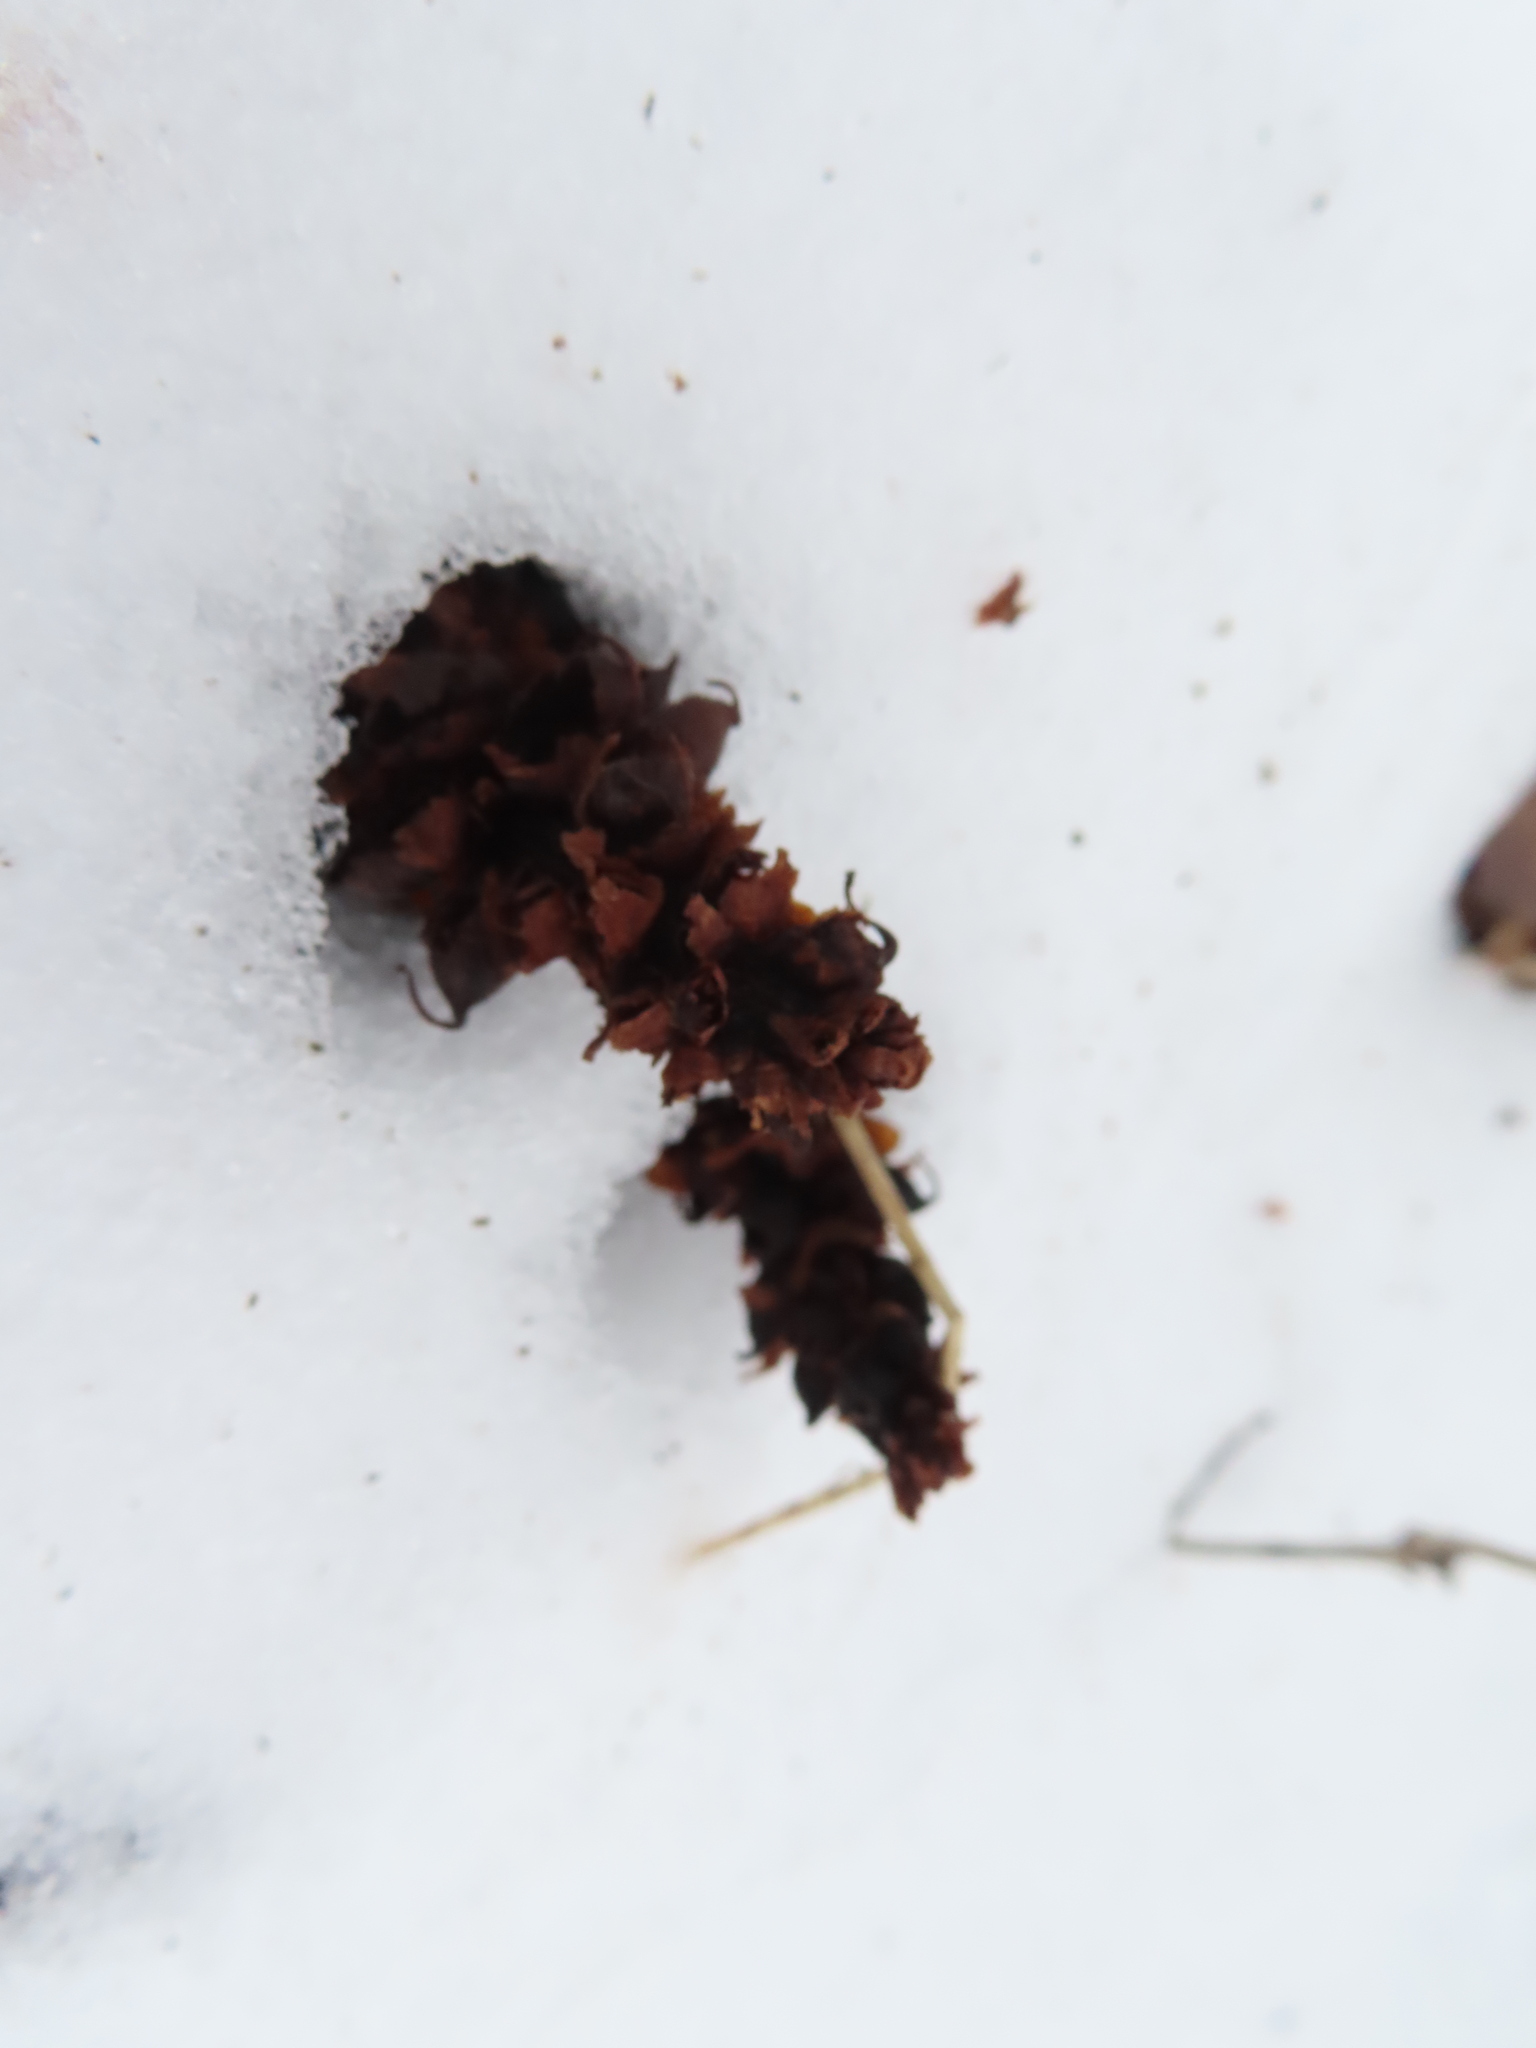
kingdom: Plantae
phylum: Tracheophyta
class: Magnoliopsida
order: Lamiales
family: Orobanchaceae
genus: Conopholis
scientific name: Conopholis americana
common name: American cancer-root
